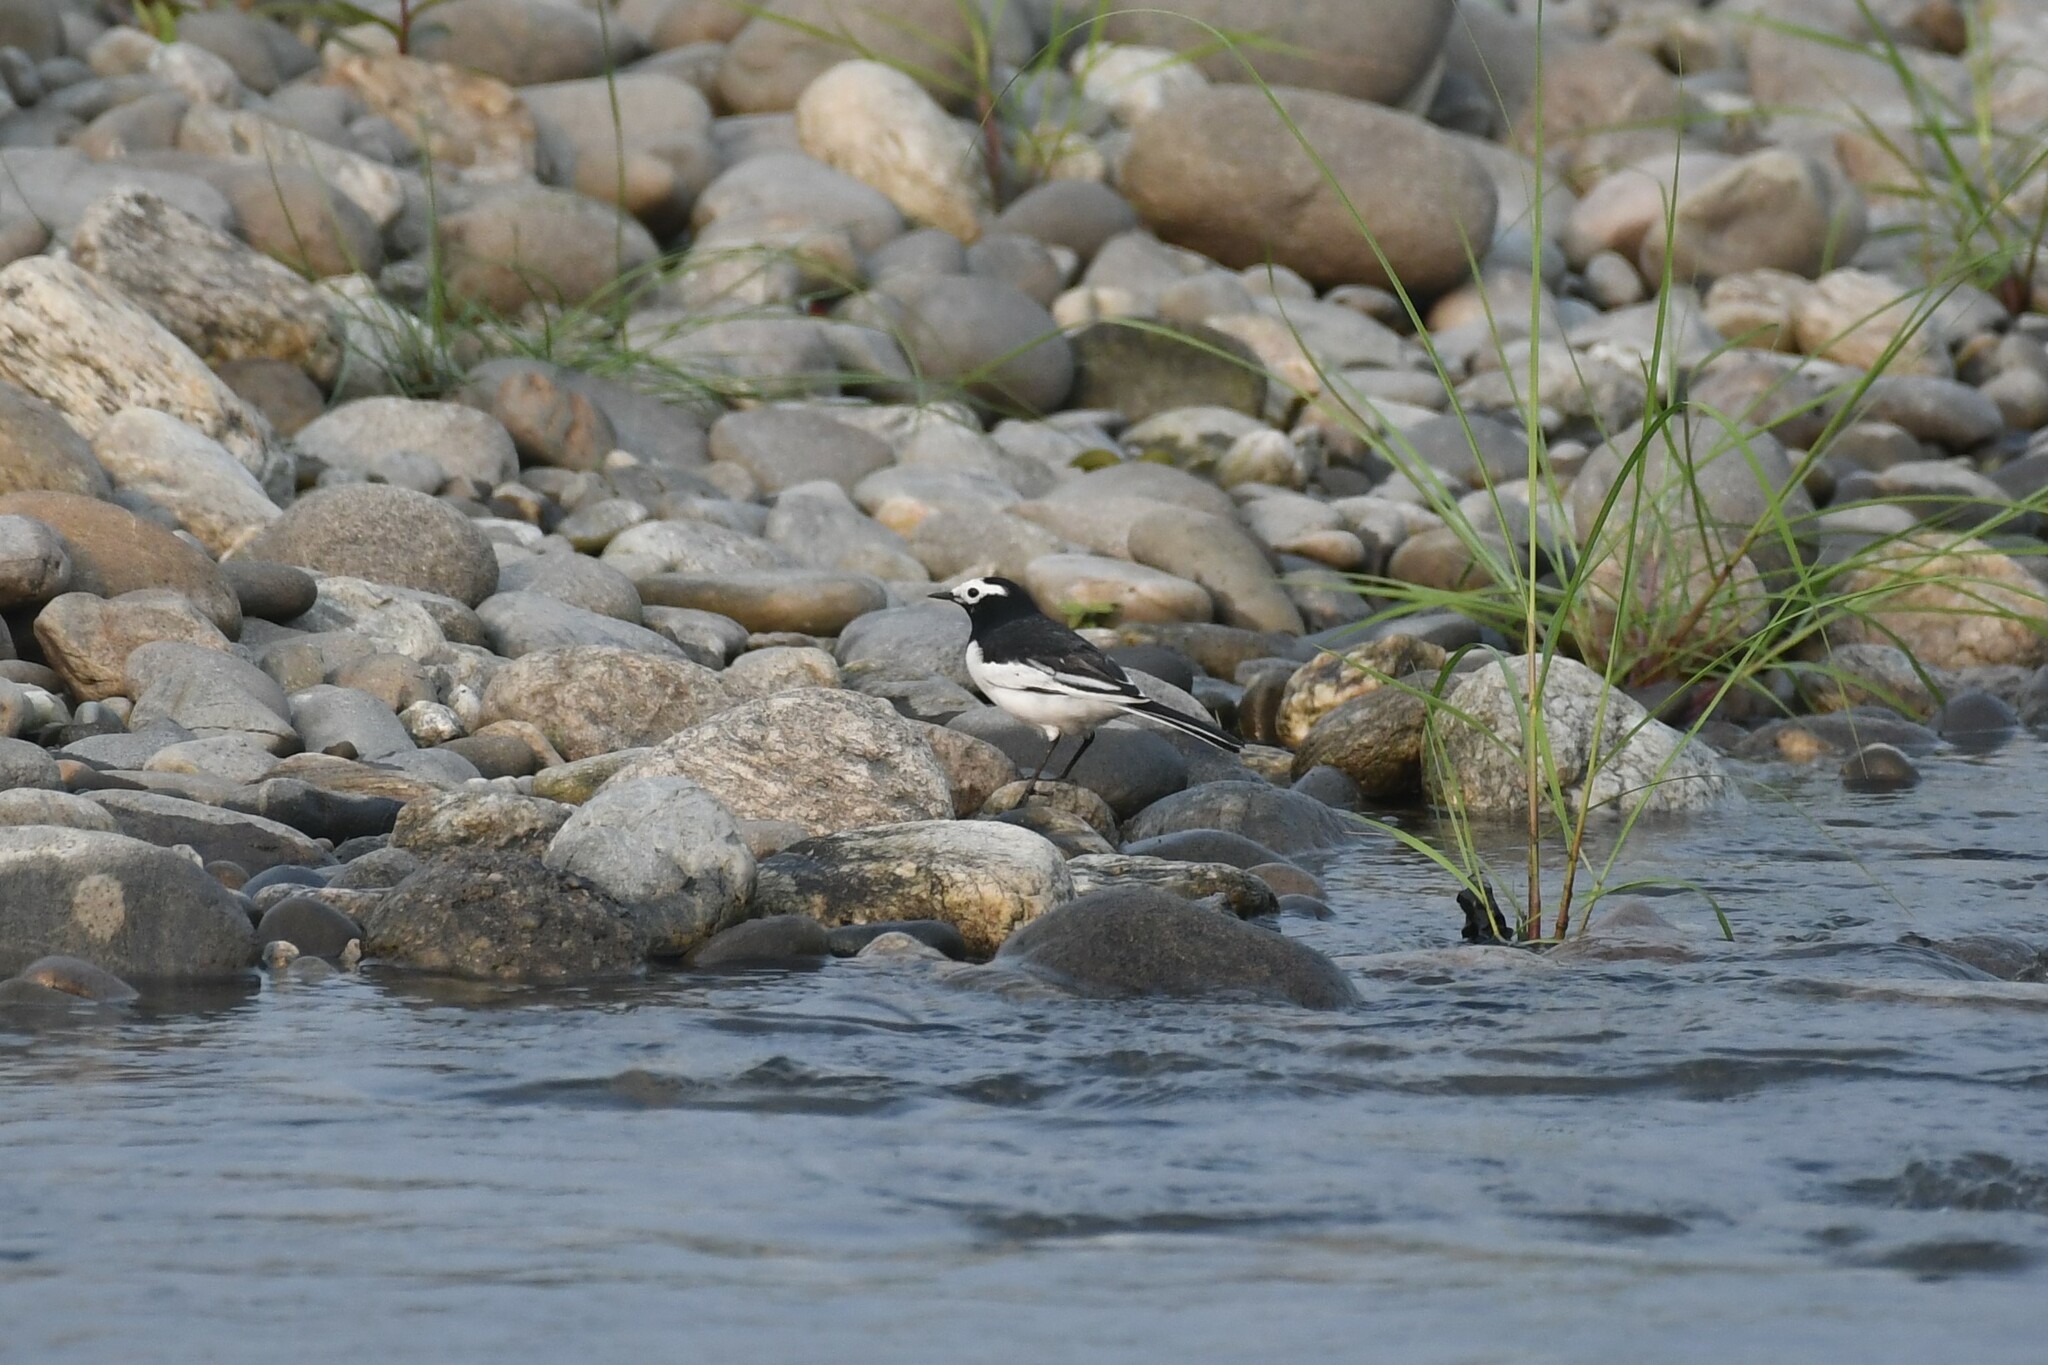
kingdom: Animalia
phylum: Chordata
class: Aves
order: Passeriformes
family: Motacillidae
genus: Motacilla
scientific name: Motacilla alba
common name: White wagtail
